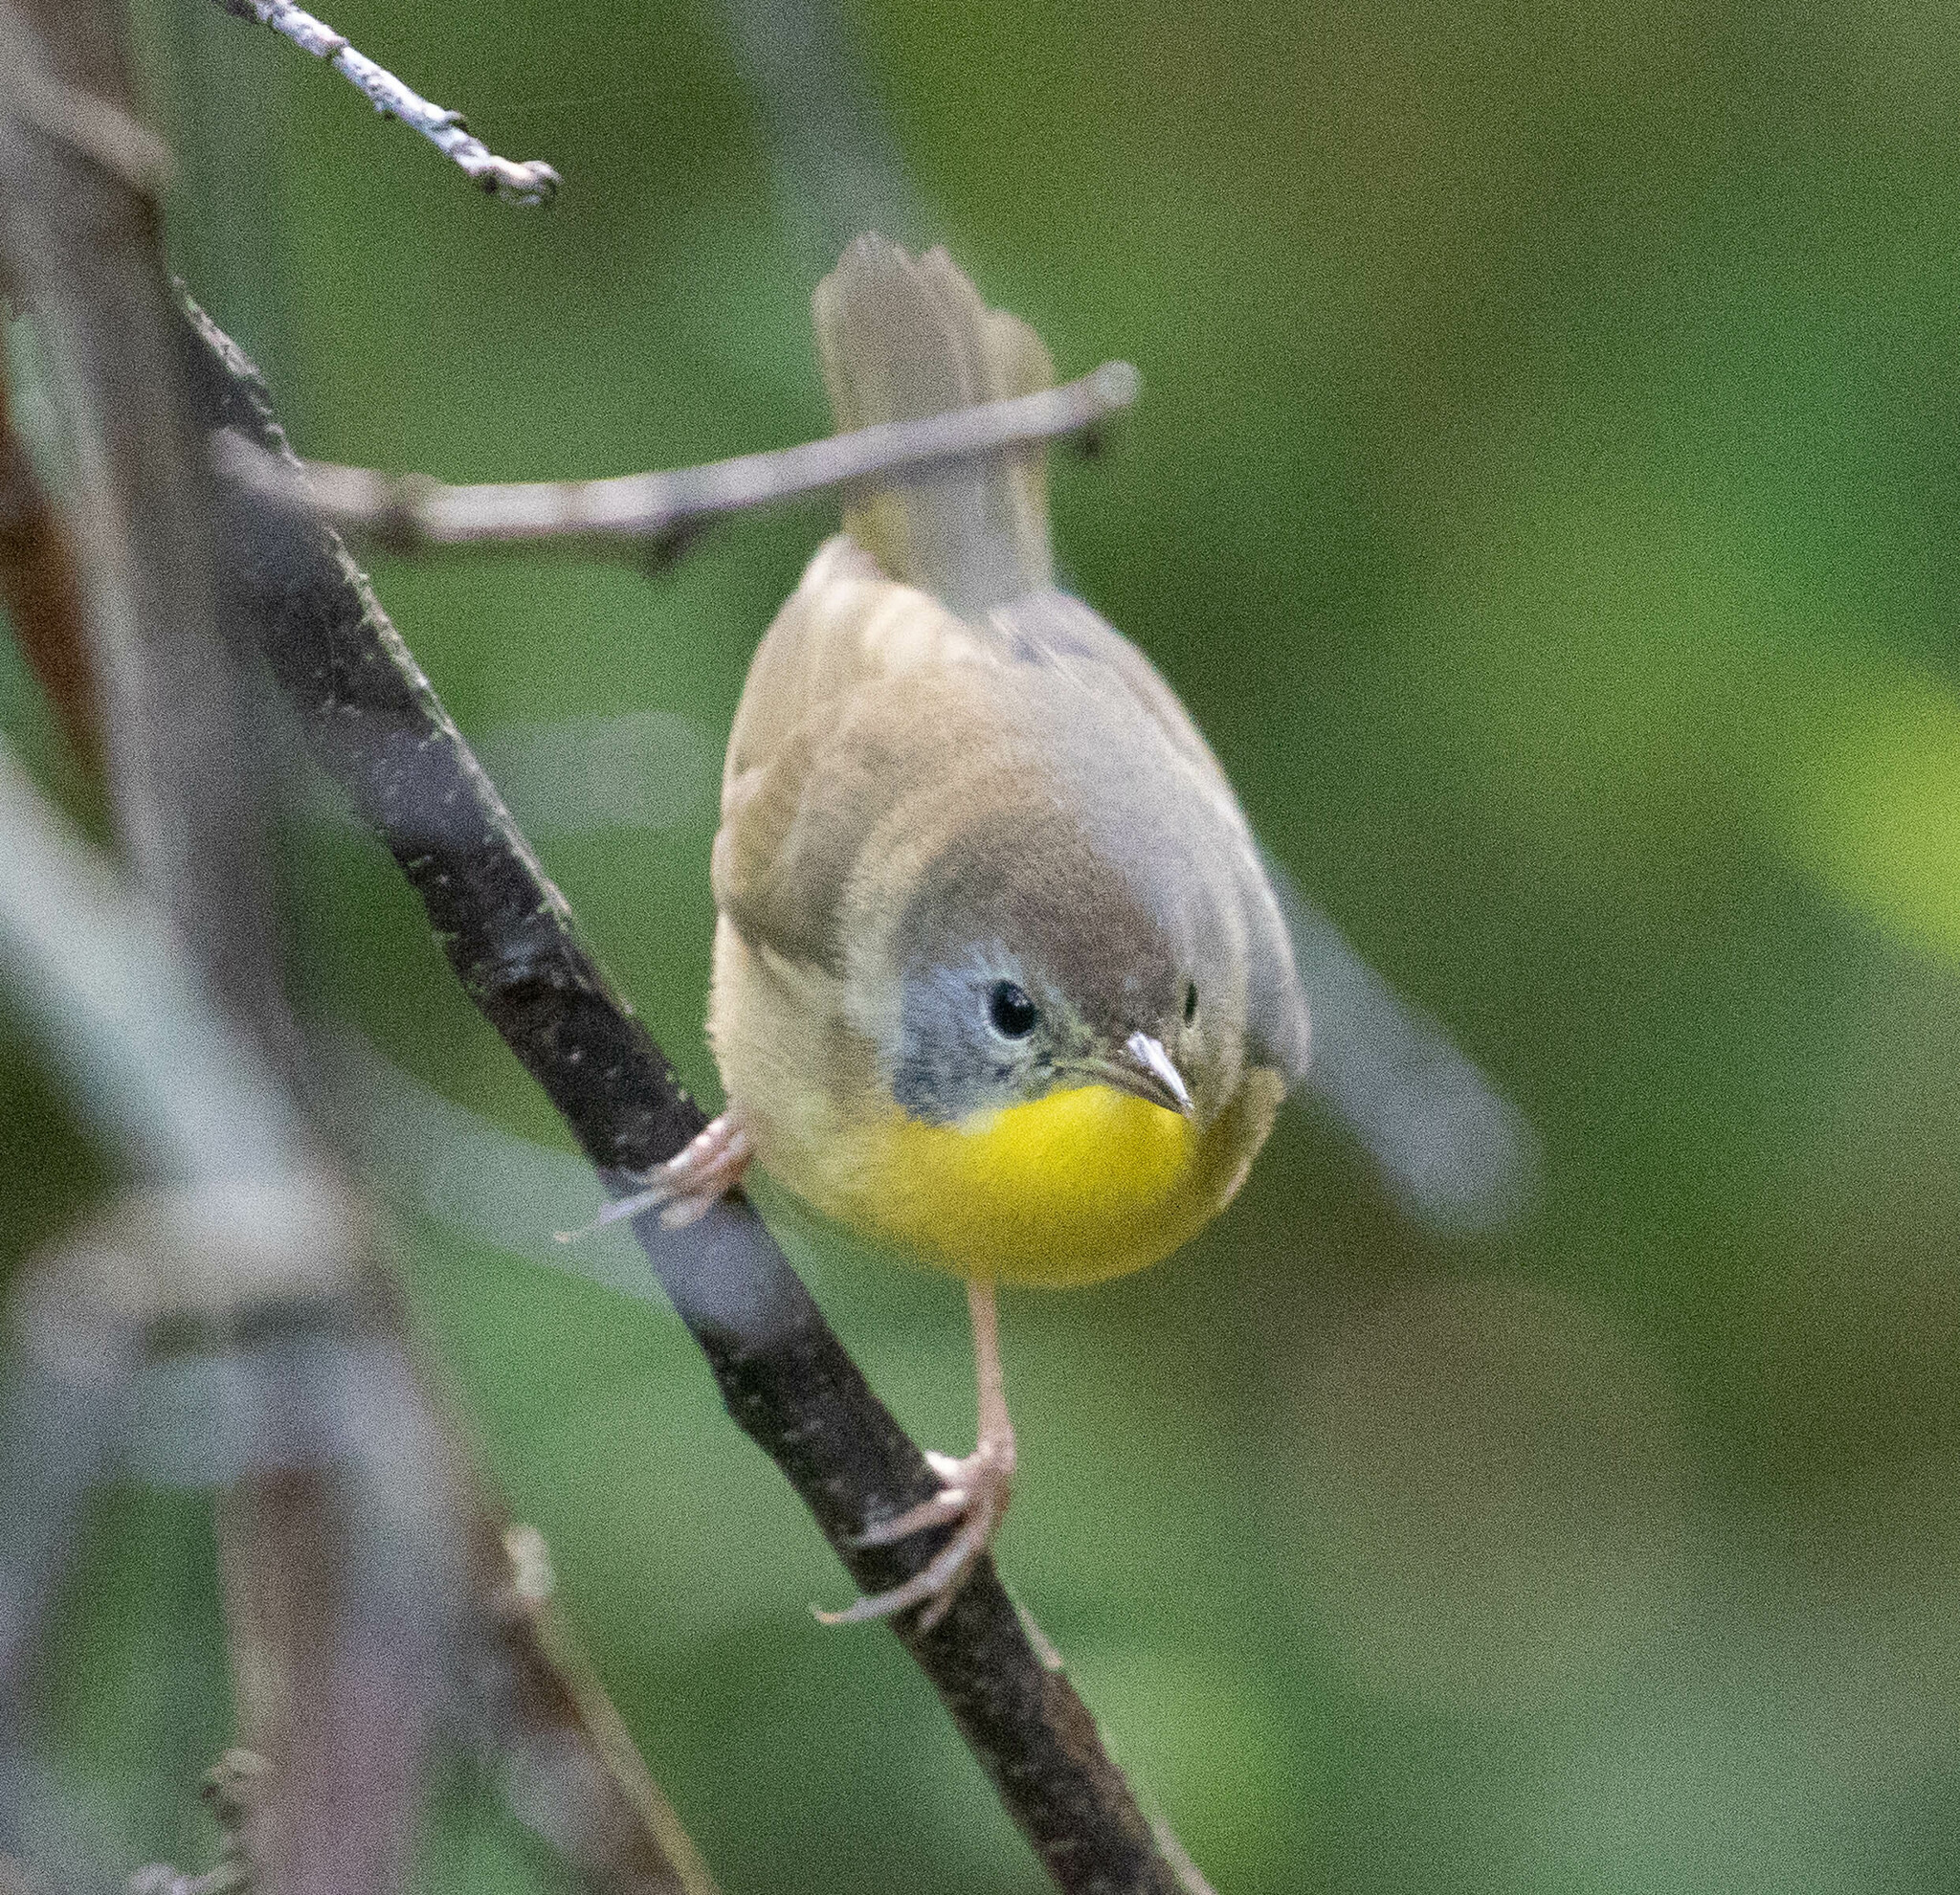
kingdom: Animalia
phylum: Chordata
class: Aves
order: Passeriformes
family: Parulidae
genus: Geothlypis
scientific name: Geothlypis trichas
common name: Common yellowthroat
